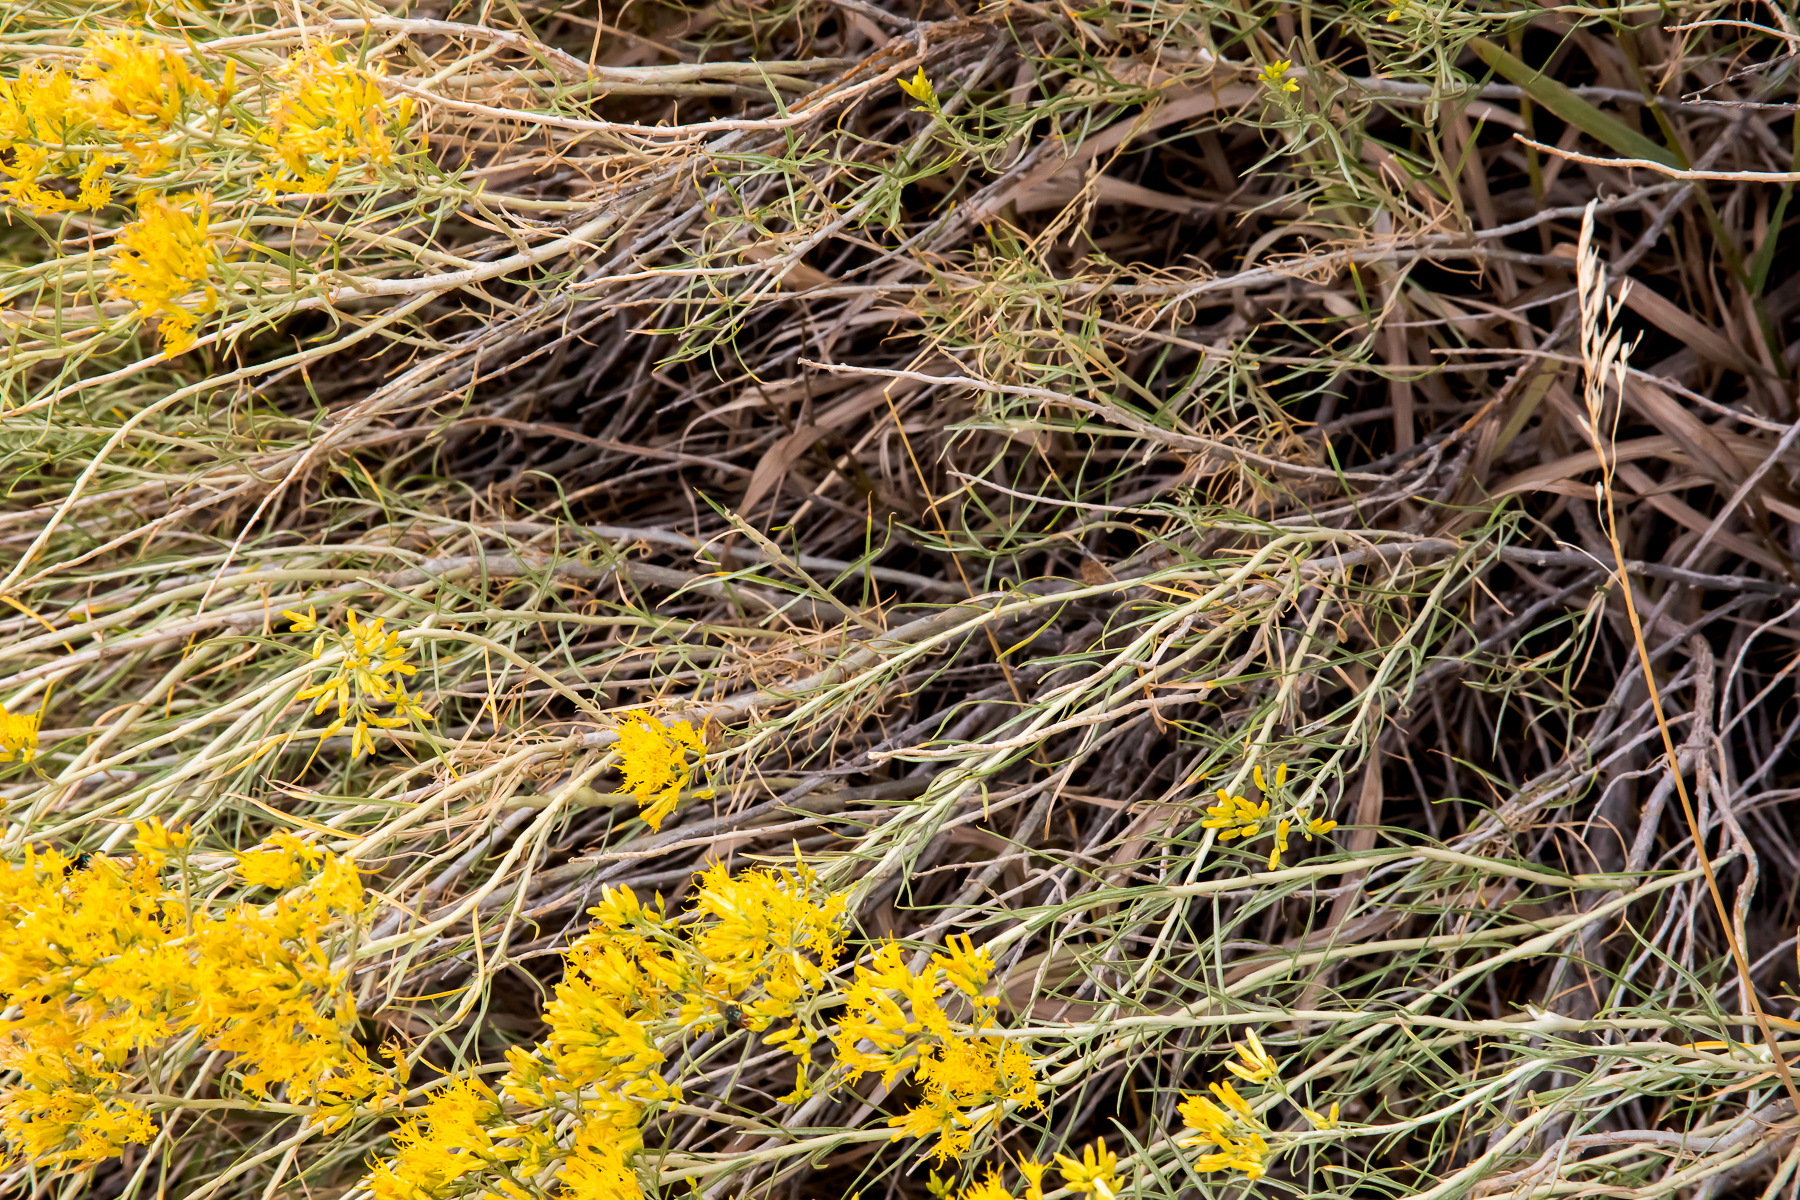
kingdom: Plantae
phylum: Tracheophyta
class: Magnoliopsida
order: Asterales
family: Asteraceae
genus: Ericameria
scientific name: Ericameria nauseosa
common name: Rubber rabbitbrush
